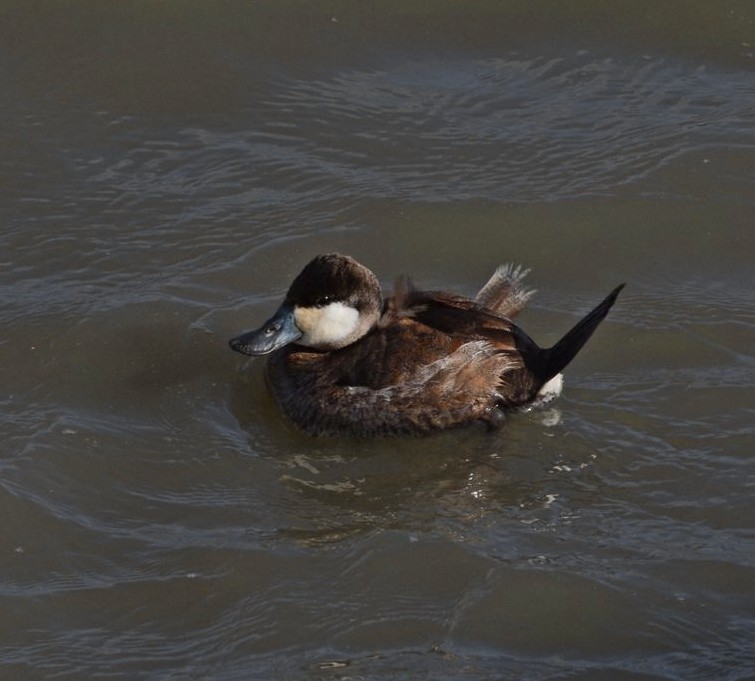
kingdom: Animalia
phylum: Chordata
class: Aves
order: Anseriformes
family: Anatidae
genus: Oxyura
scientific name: Oxyura jamaicensis
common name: Ruddy duck
